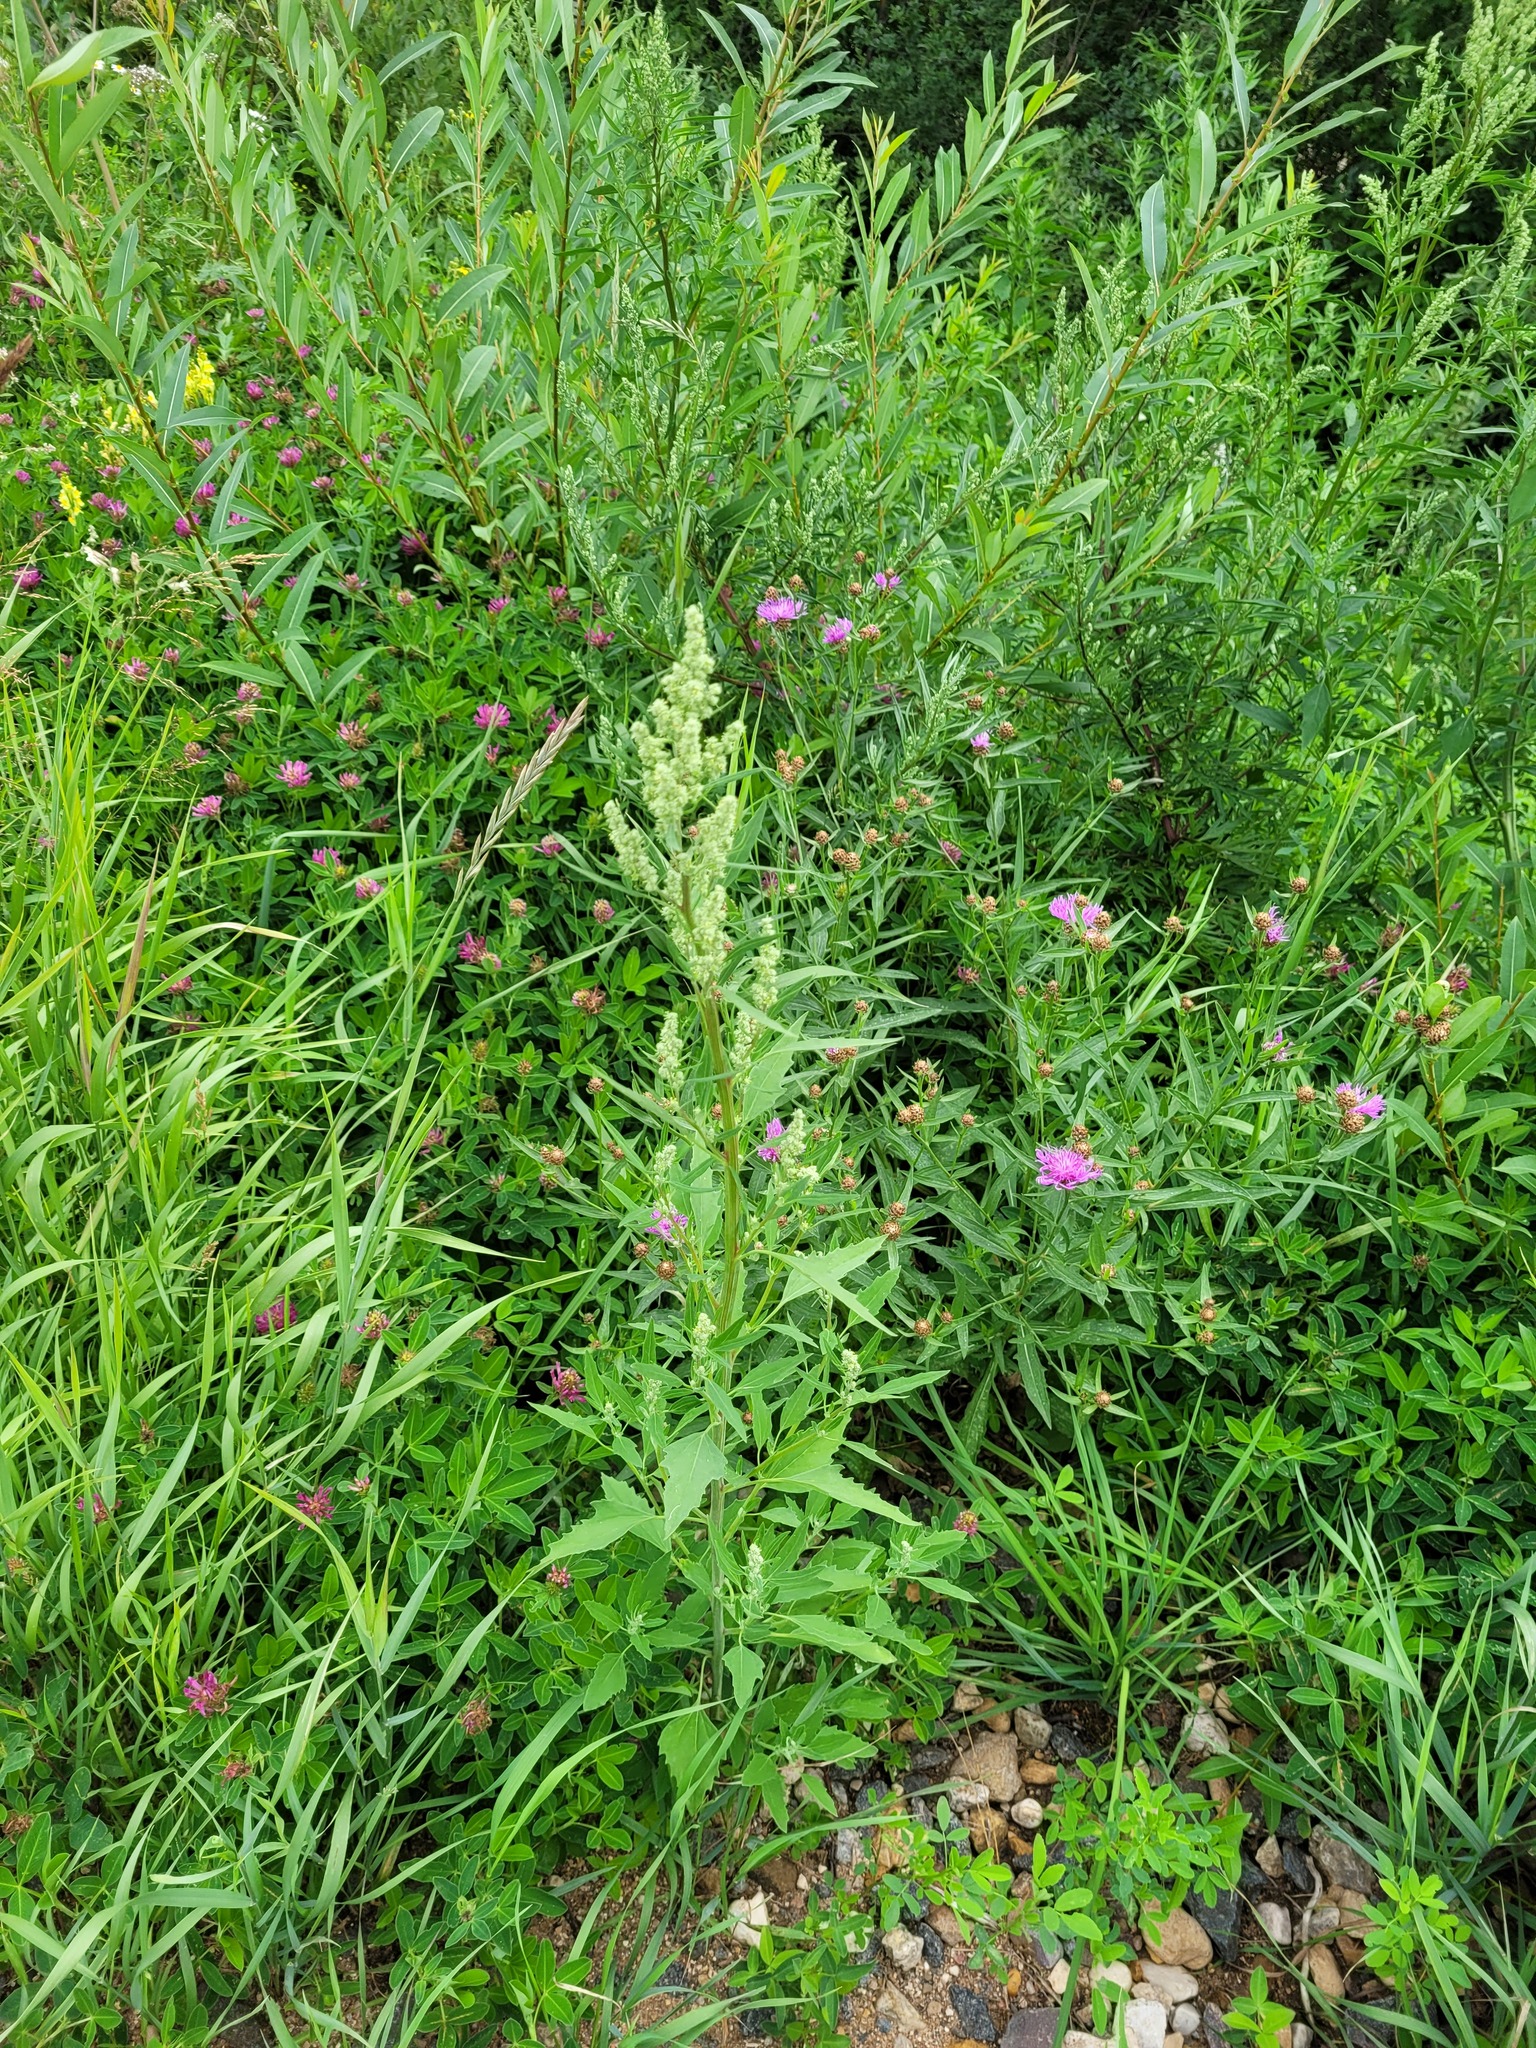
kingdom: Plantae
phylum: Tracheophyta
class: Magnoliopsida
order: Caryophyllales
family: Amaranthaceae
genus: Chenopodium
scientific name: Chenopodium album
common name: Fat-hen
